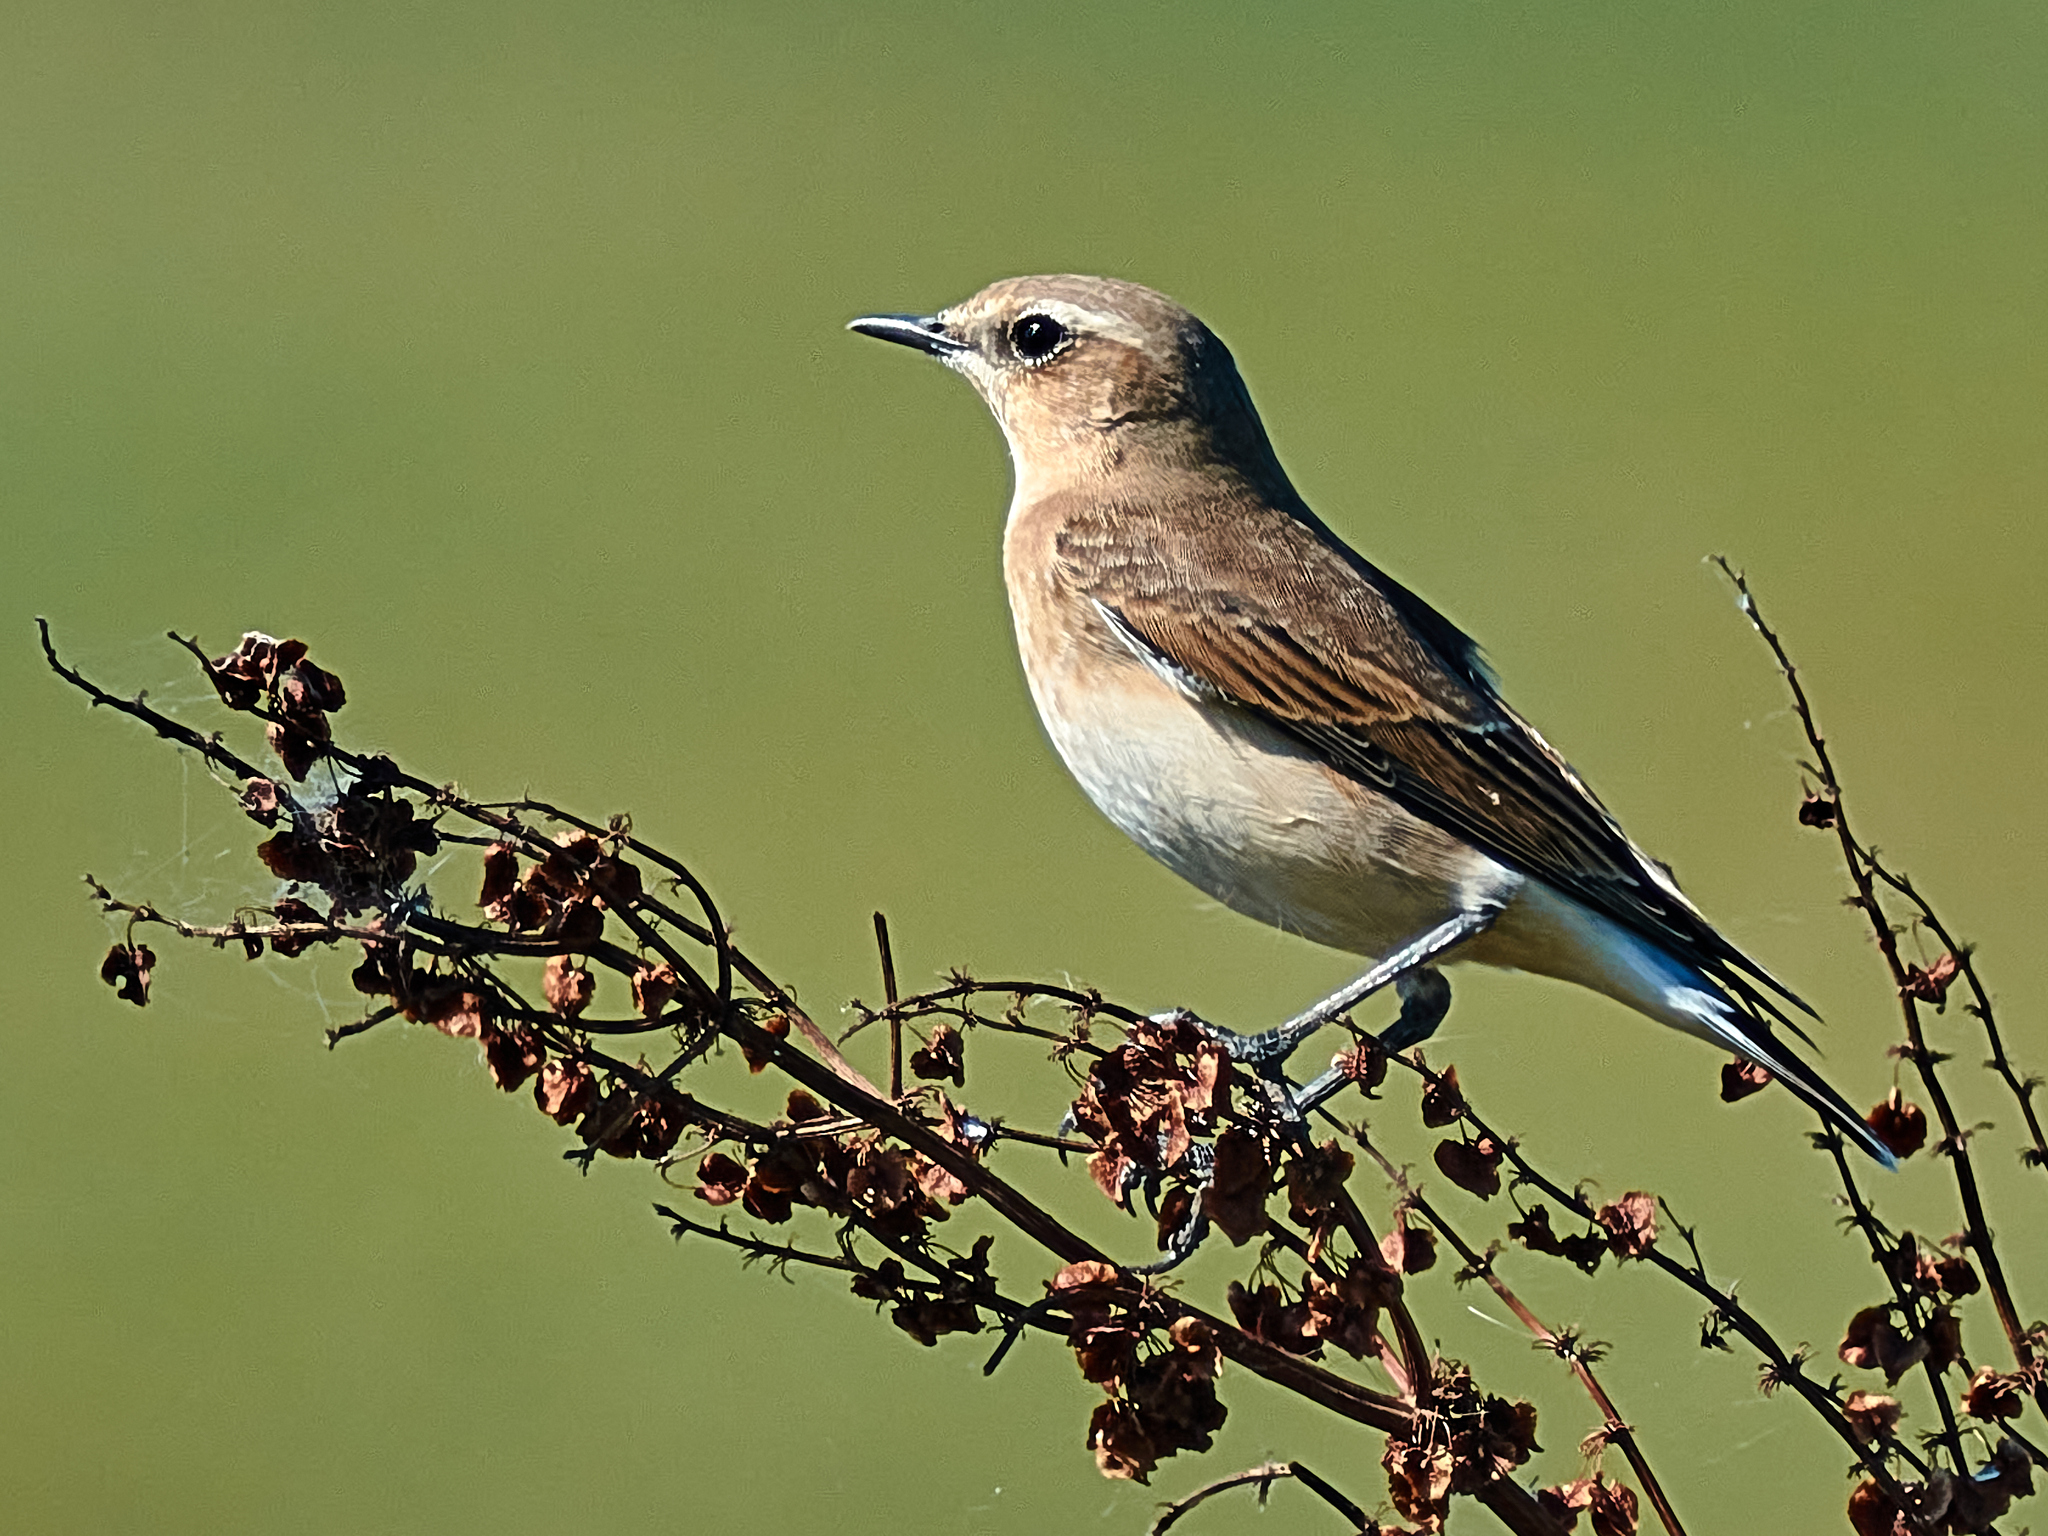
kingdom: Animalia
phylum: Chordata
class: Aves
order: Passeriformes
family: Muscicapidae
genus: Oenanthe
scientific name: Oenanthe oenanthe
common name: Northern wheatear
